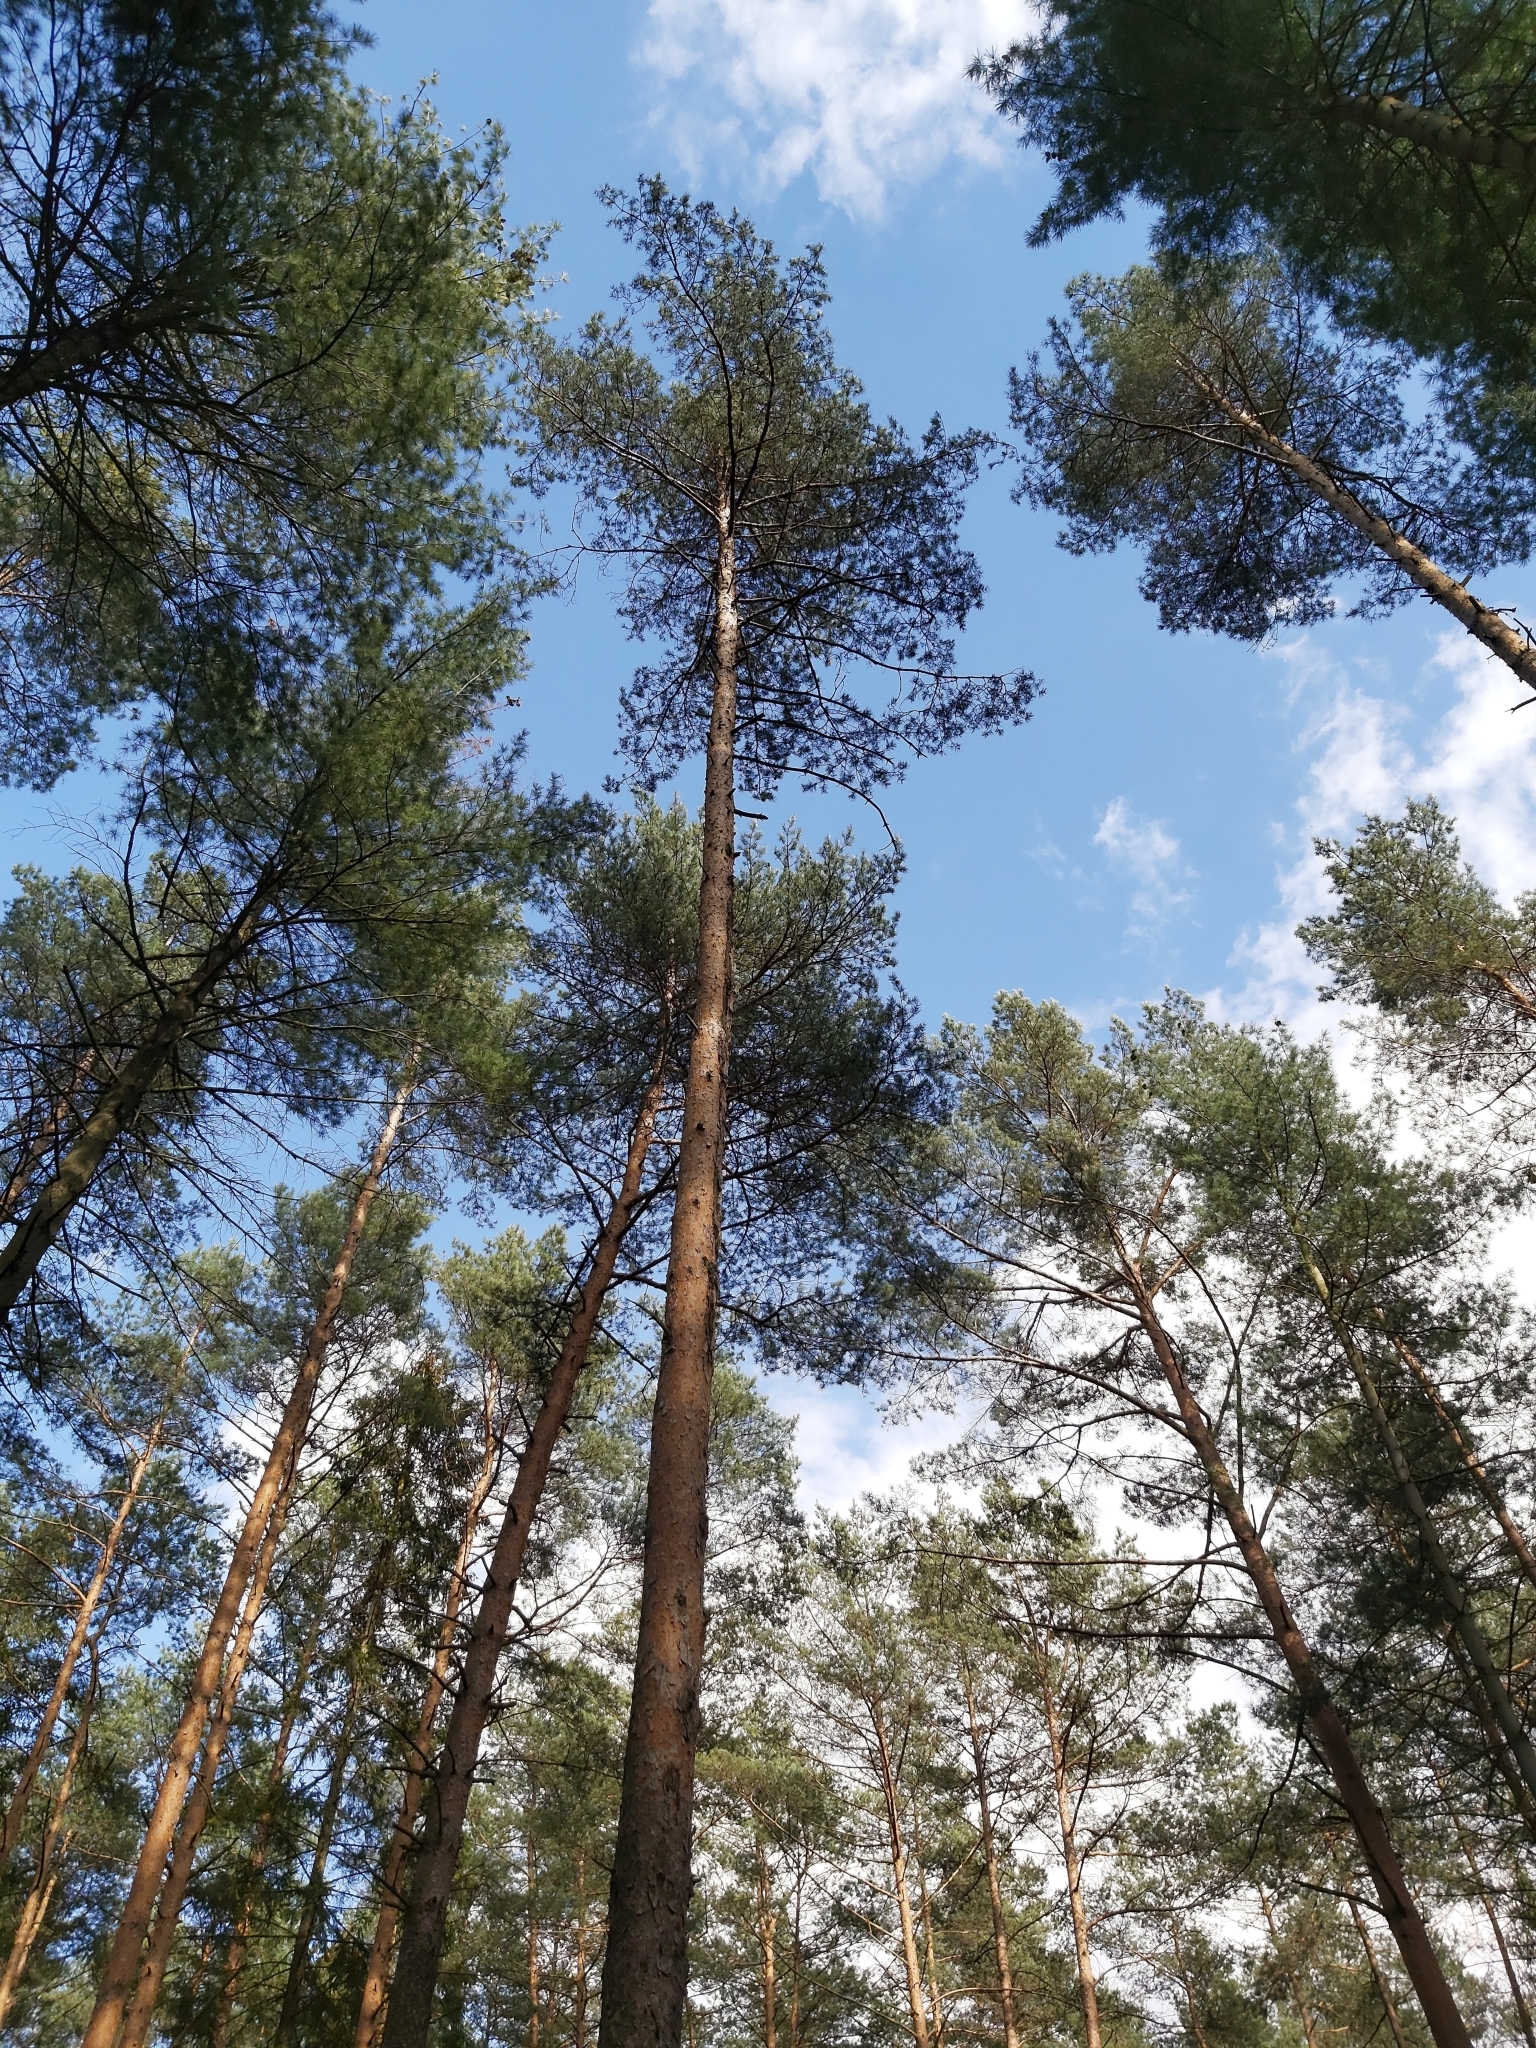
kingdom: Plantae
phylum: Tracheophyta
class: Pinopsida
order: Pinales
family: Pinaceae
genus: Pinus
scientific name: Pinus sylvestris
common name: Scots pine
